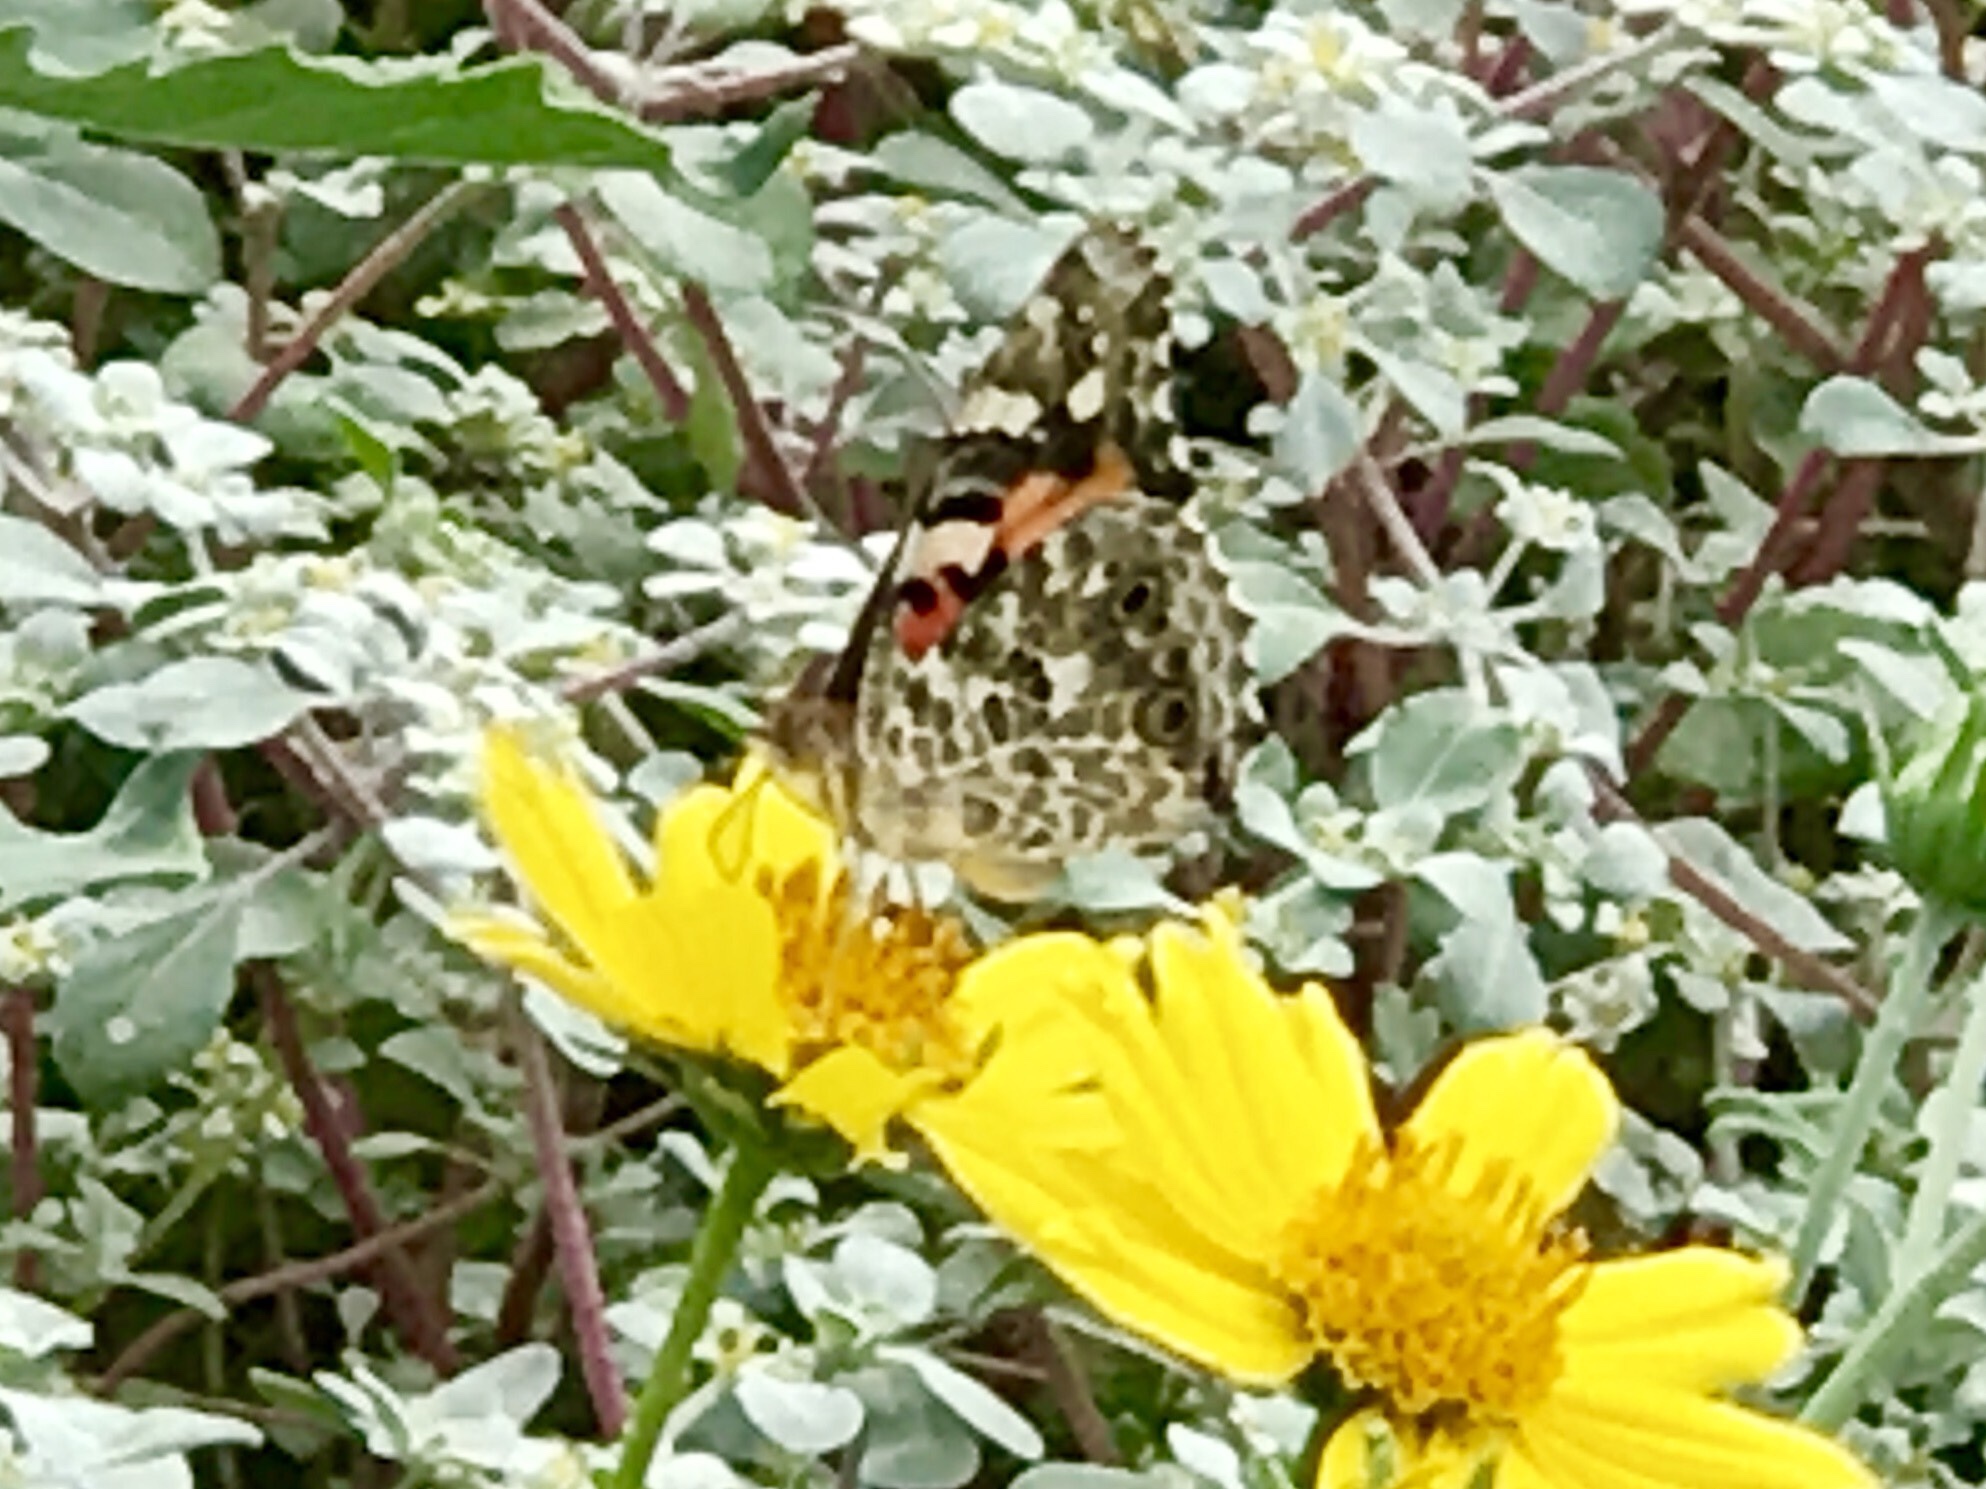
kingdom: Animalia
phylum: Arthropoda
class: Insecta
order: Lepidoptera
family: Nymphalidae
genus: Vanessa
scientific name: Vanessa cardui
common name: Painted lady
